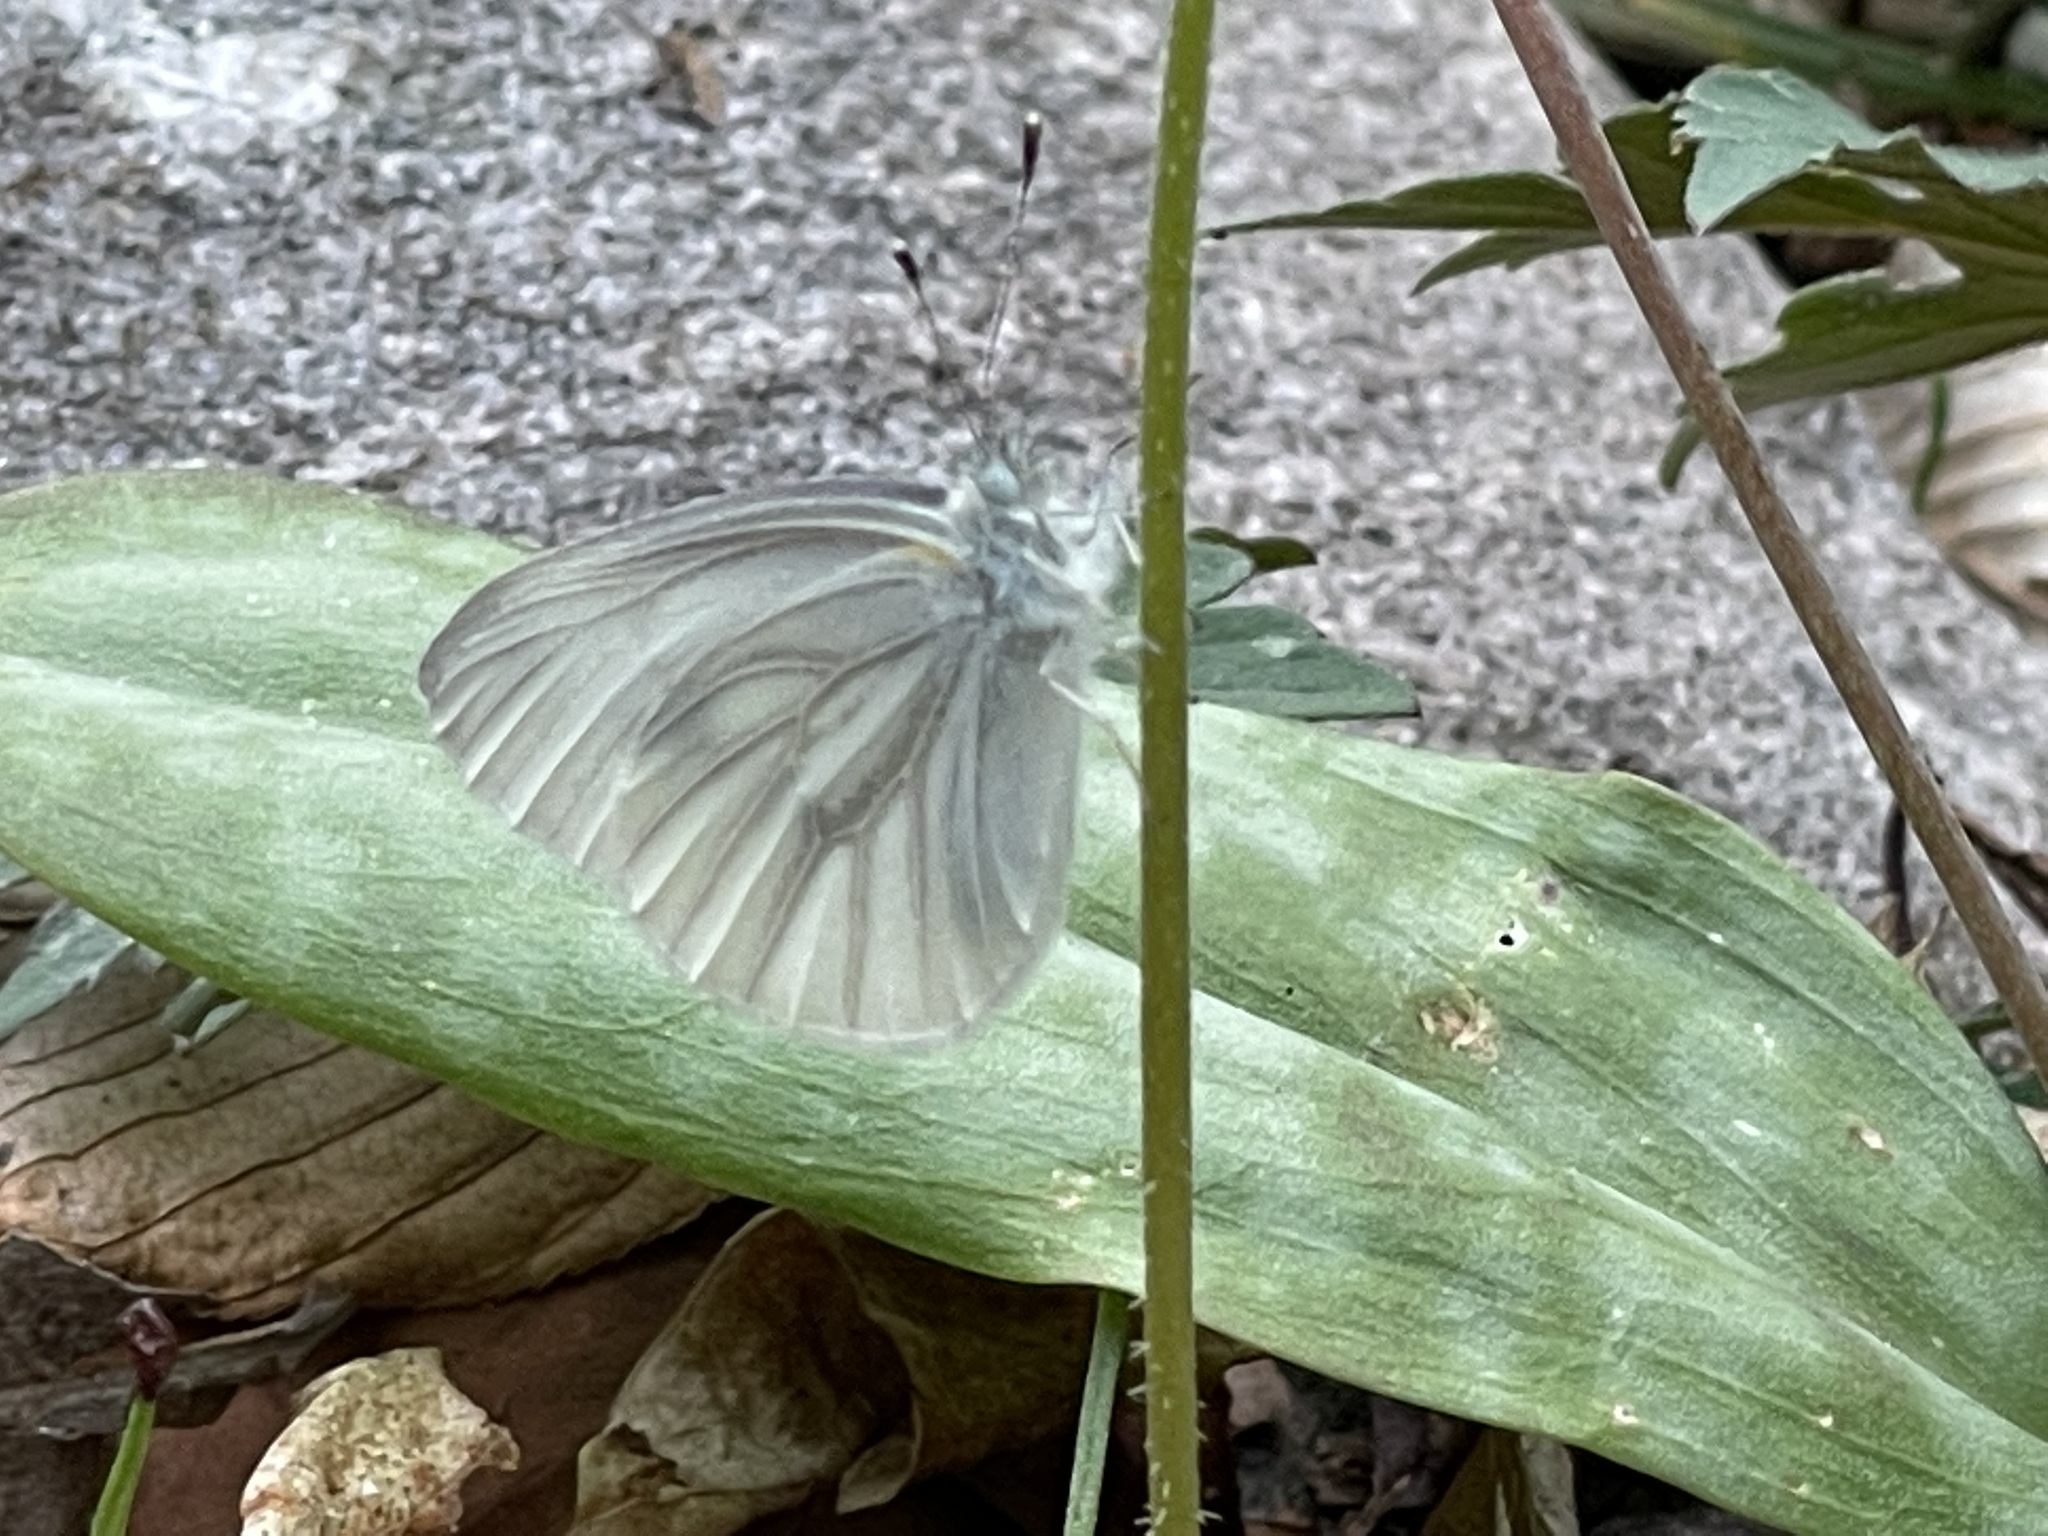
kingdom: Animalia
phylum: Arthropoda
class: Insecta
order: Lepidoptera
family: Pieridae
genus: Pieris
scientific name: Pieris virginiensis
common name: West virginia white
